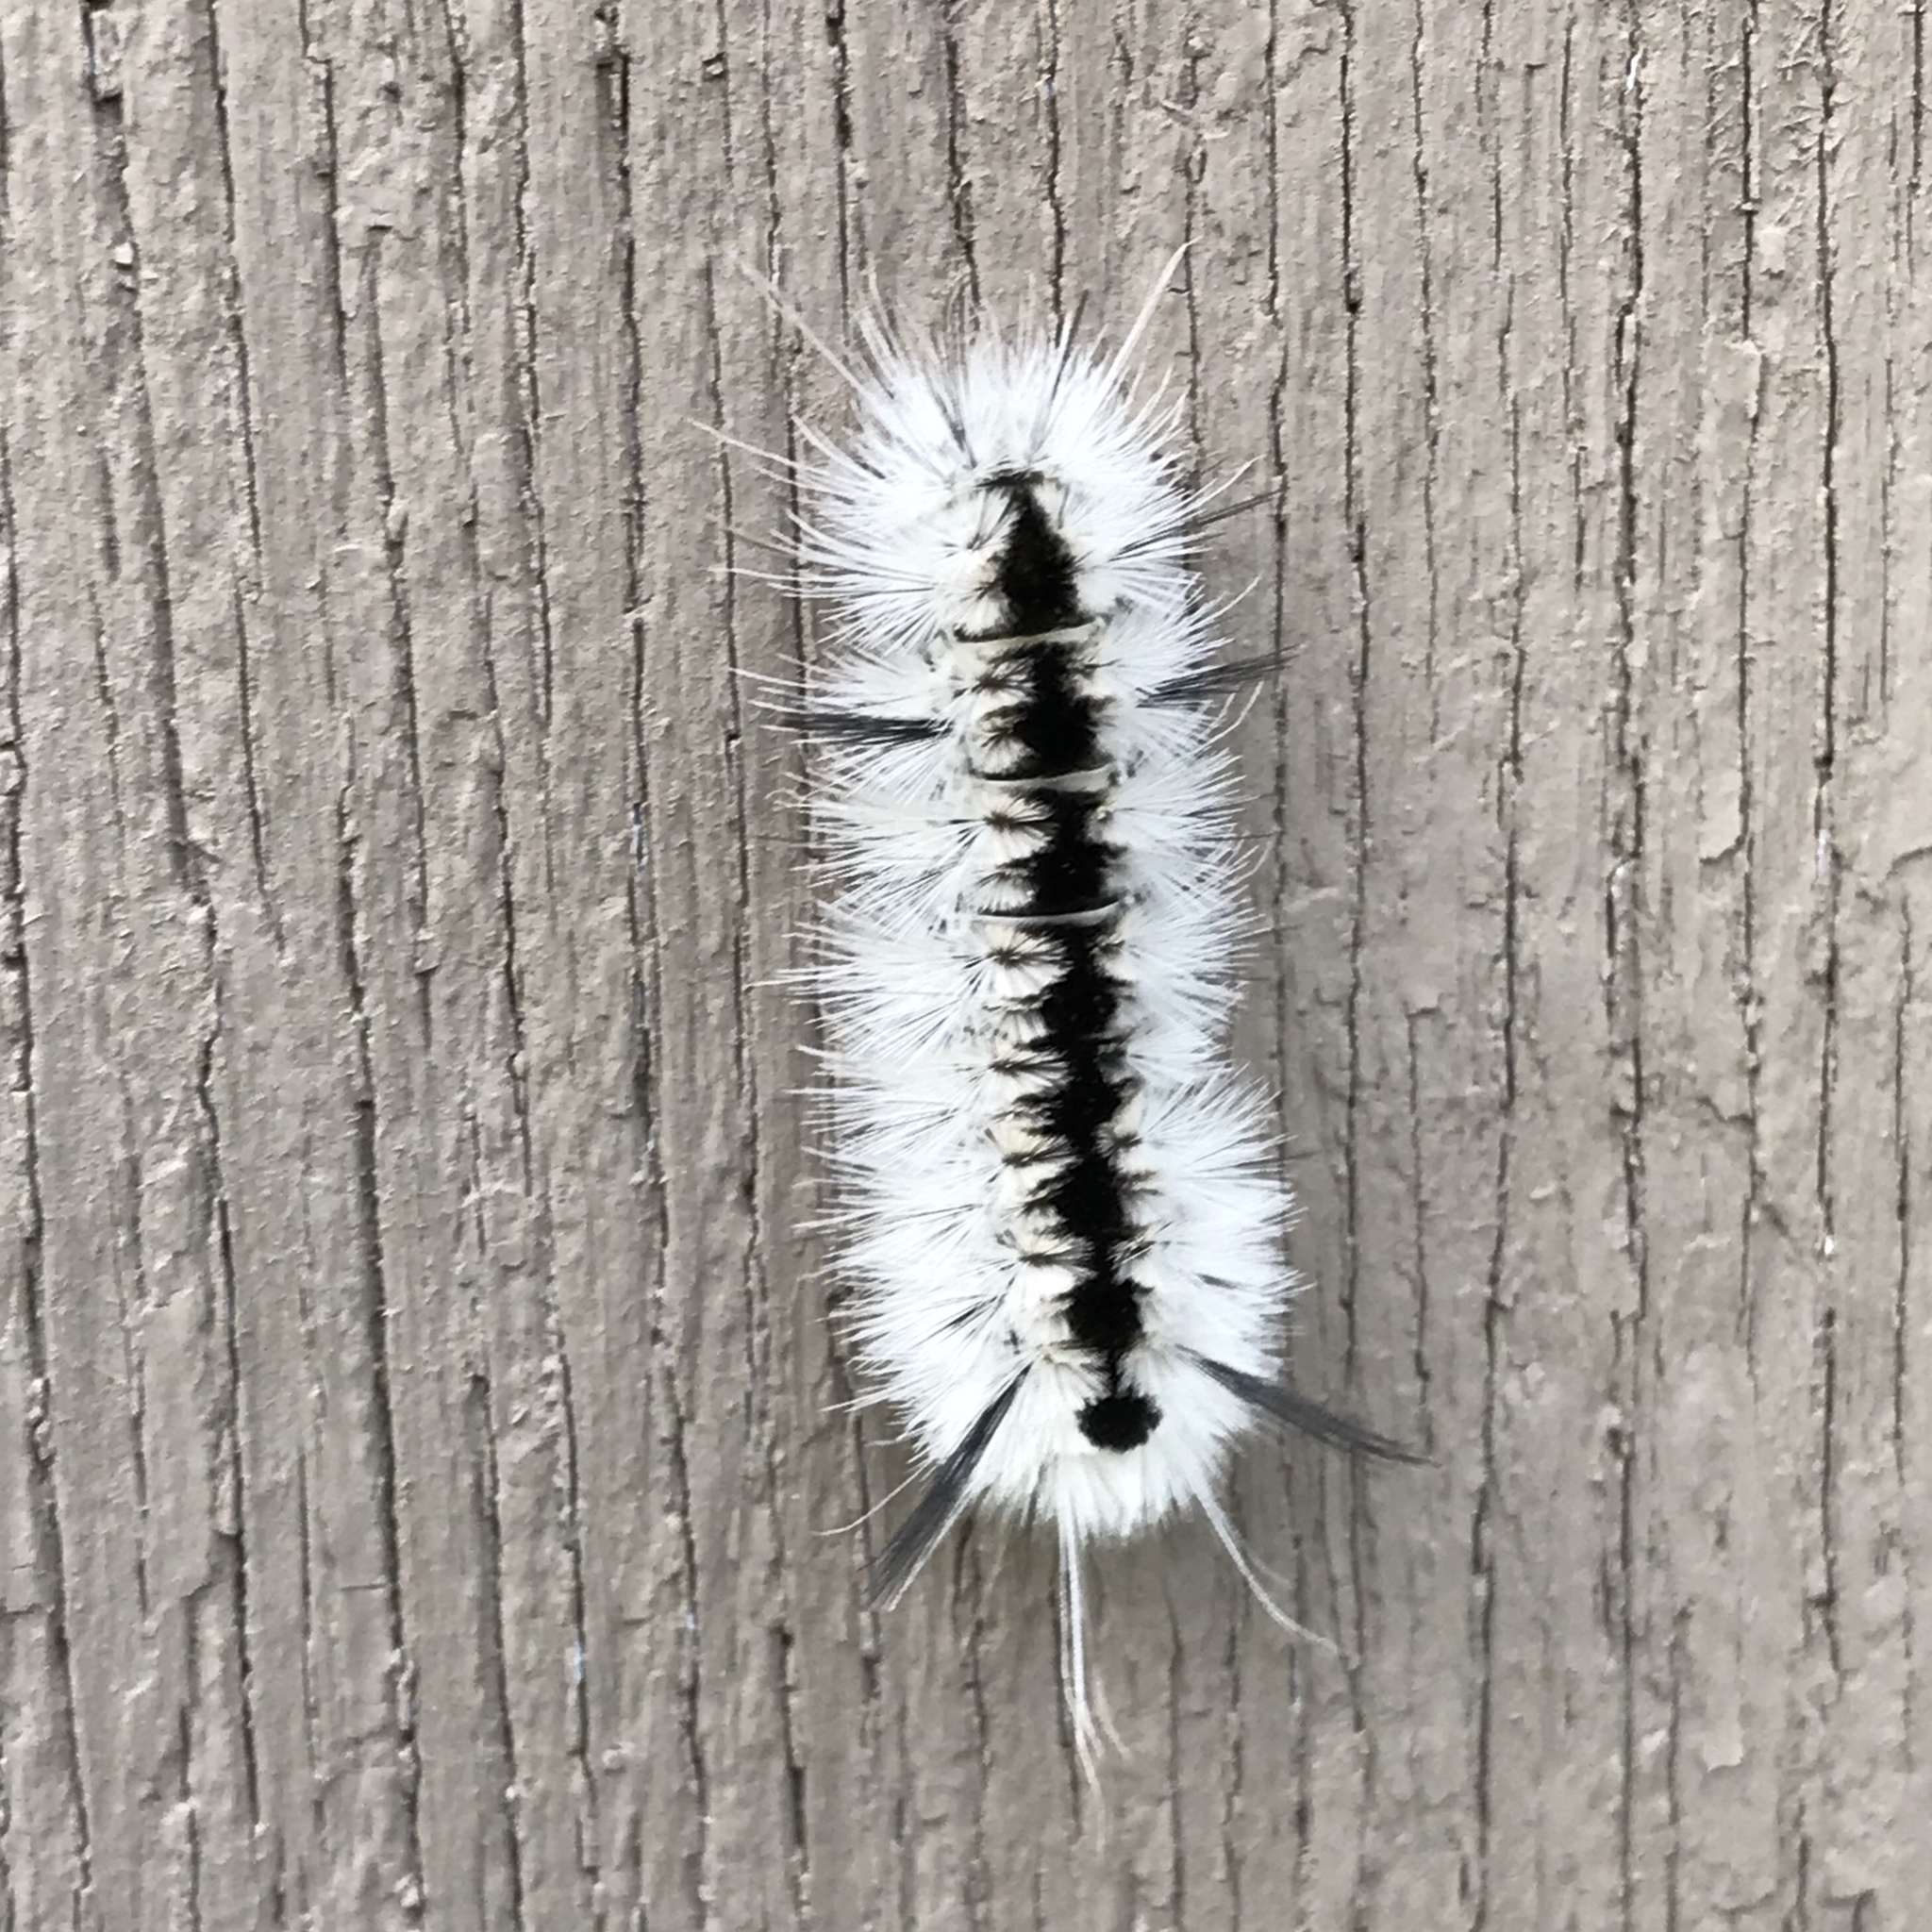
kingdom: Animalia
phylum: Arthropoda
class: Insecta
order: Lepidoptera
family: Erebidae
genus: Lophocampa
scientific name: Lophocampa caryae
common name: Hickory tussock moth
